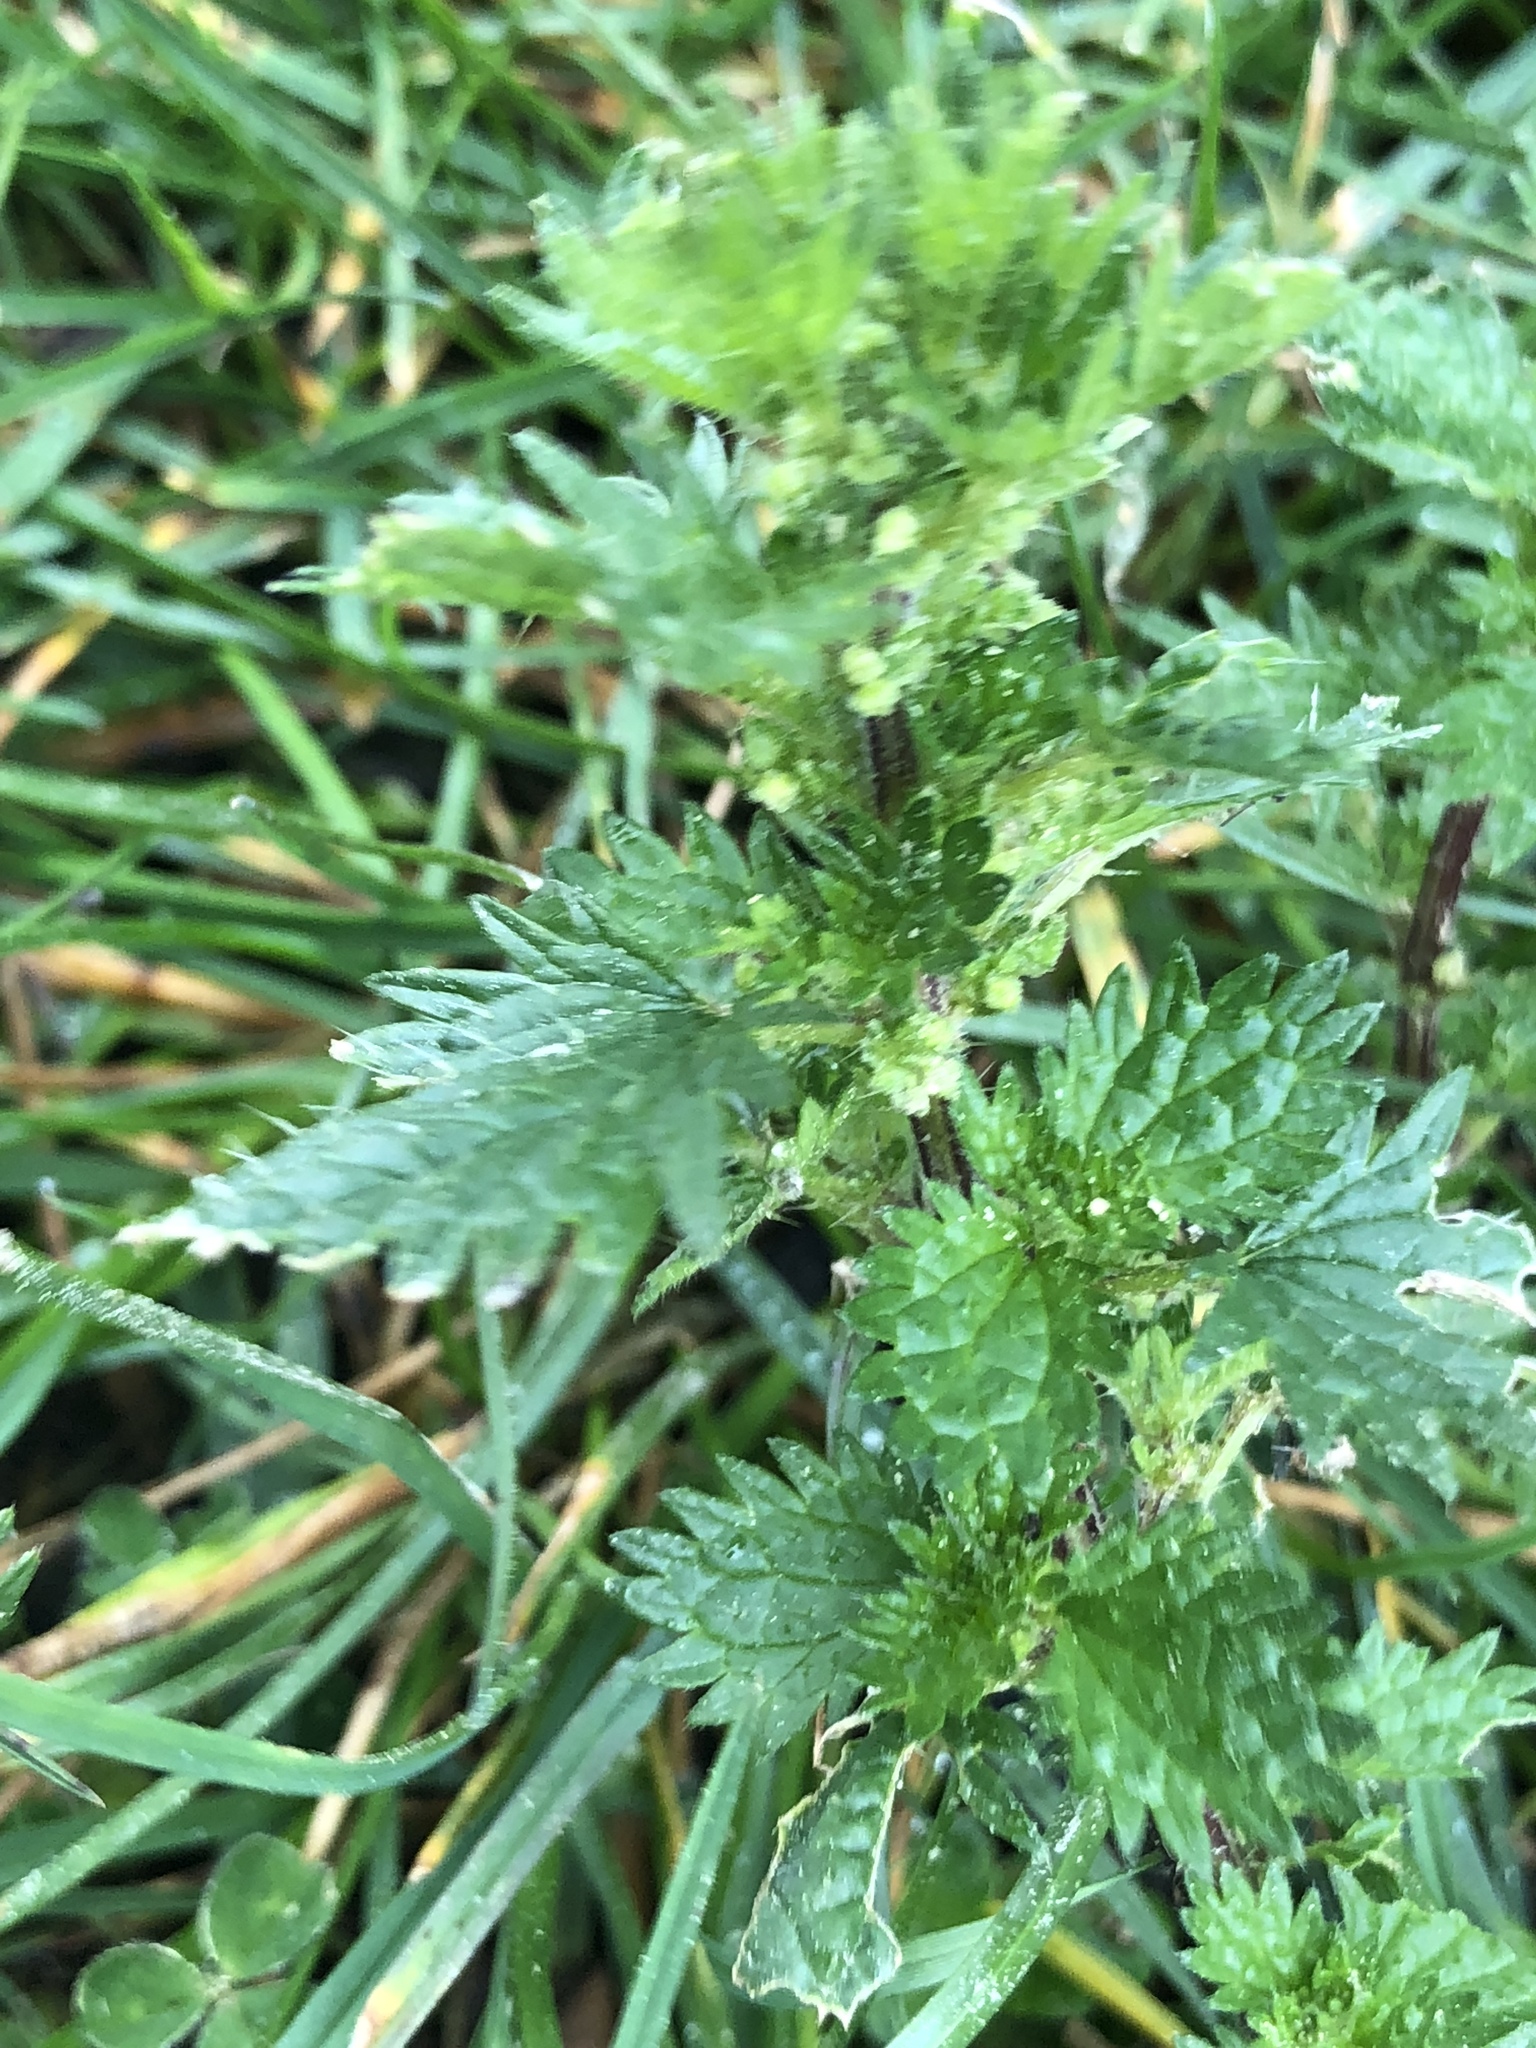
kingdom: Plantae
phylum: Tracheophyta
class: Magnoliopsida
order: Rosales
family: Urticaceae
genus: Urtica
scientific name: Urtica urens
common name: Dwarf nettle
